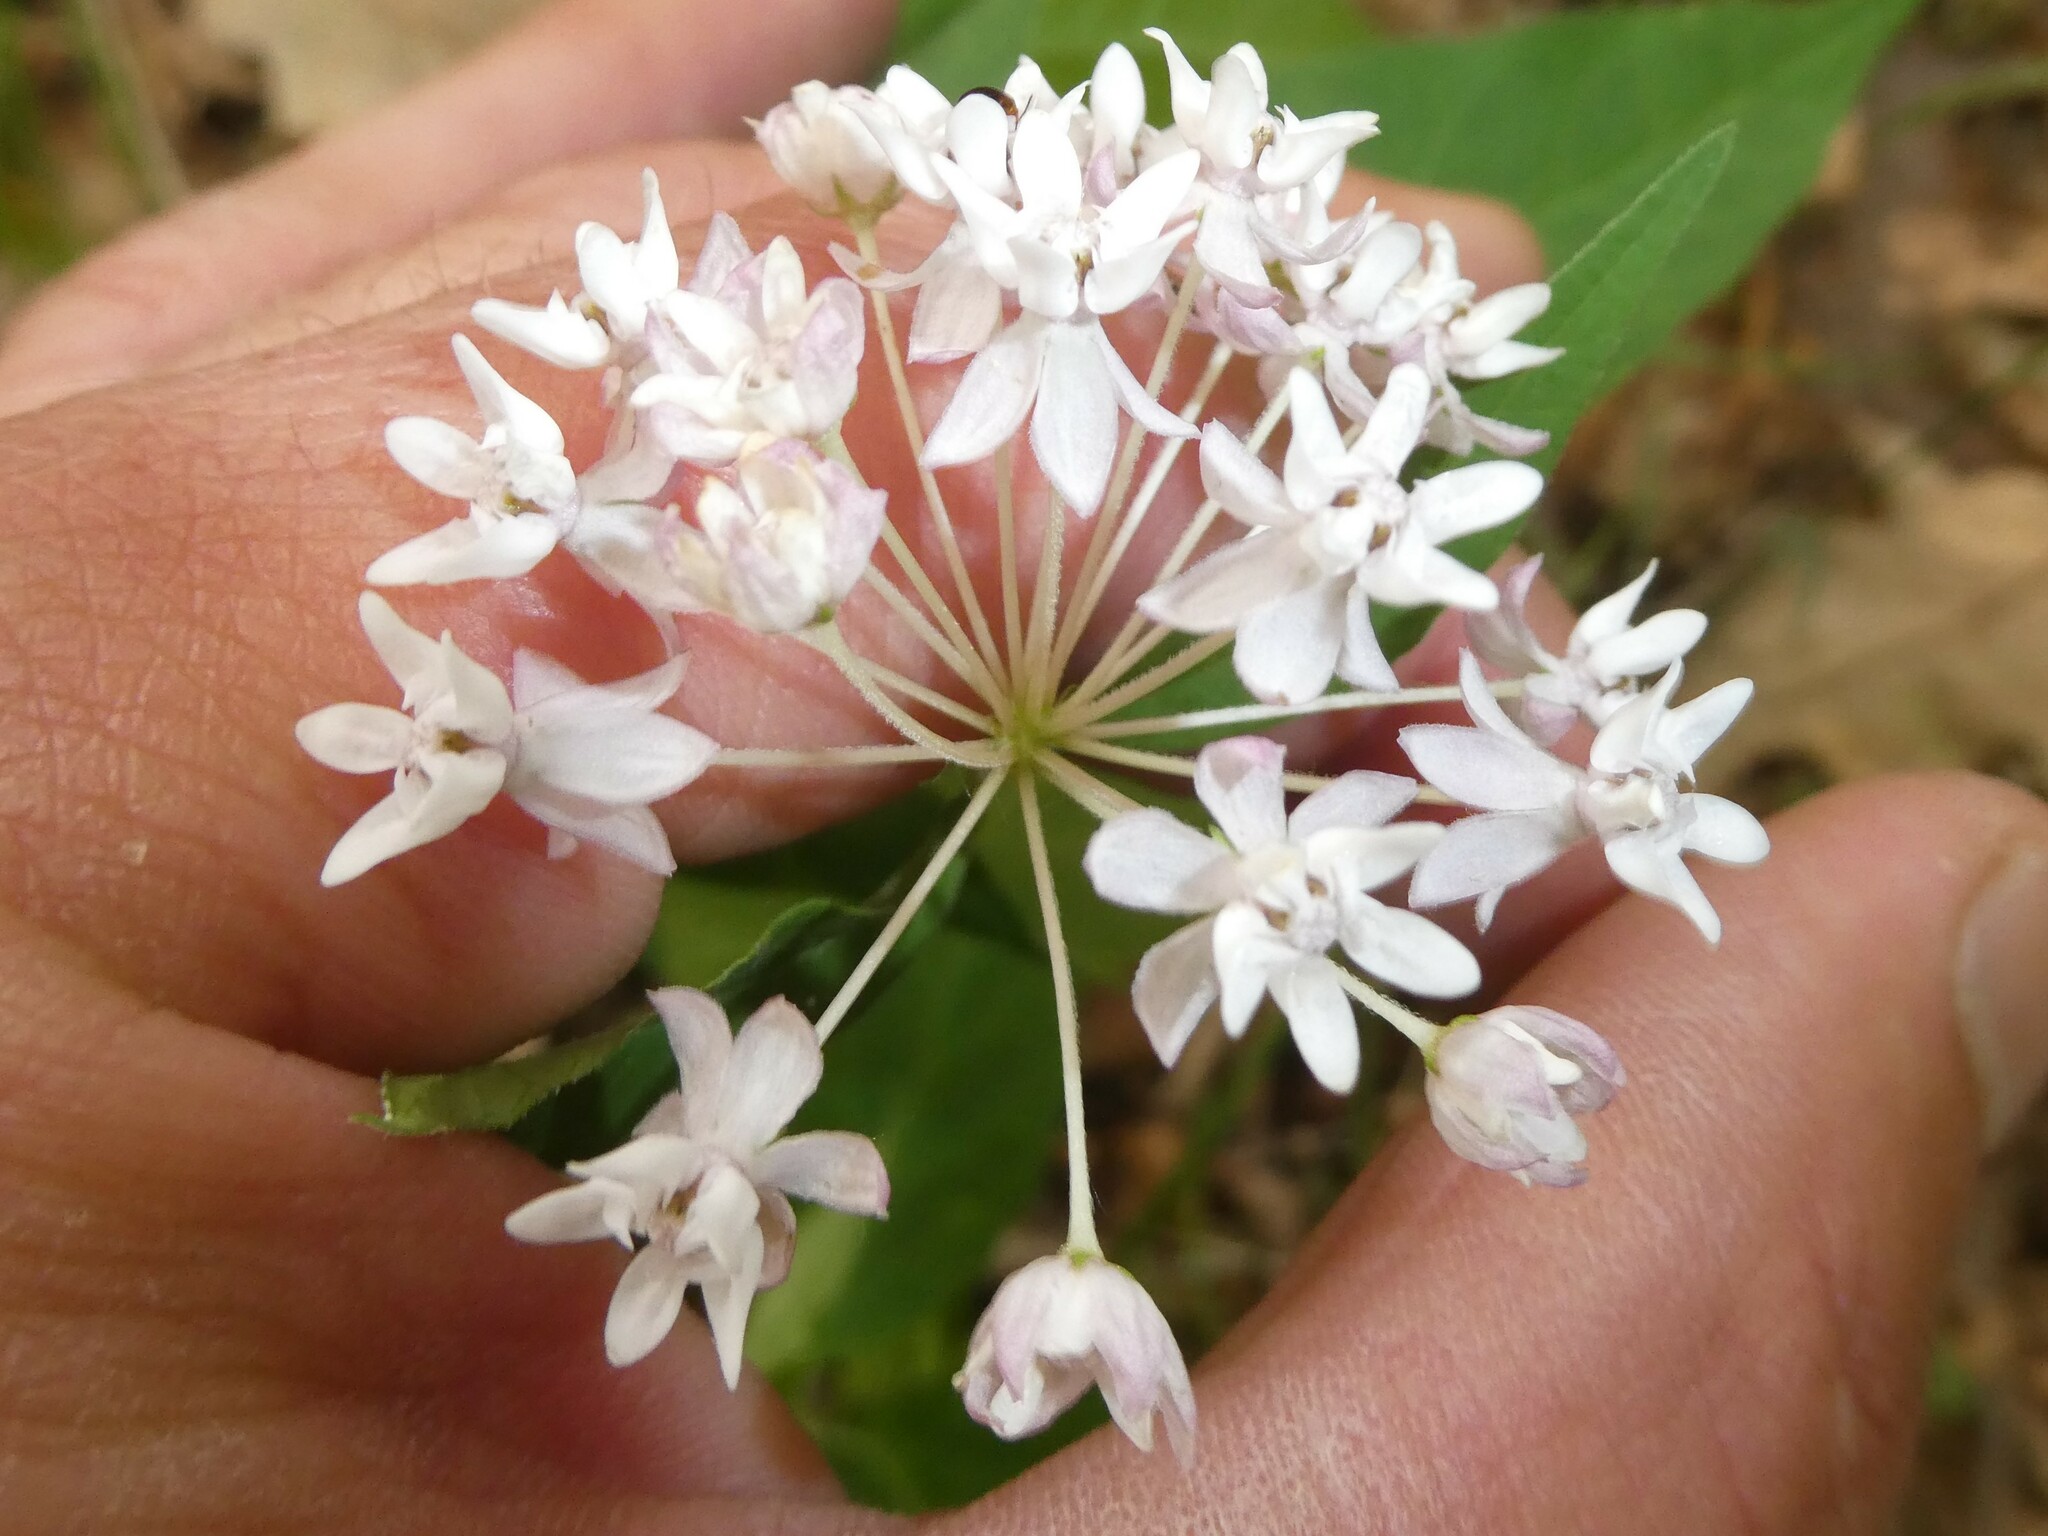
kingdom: Plantae
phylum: Tracheophyta
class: Magnoliopsida
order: Gentianales
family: Apocynaceae
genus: Asclepias
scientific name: Asclepias quadrifolia
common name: Whorled milkweed
